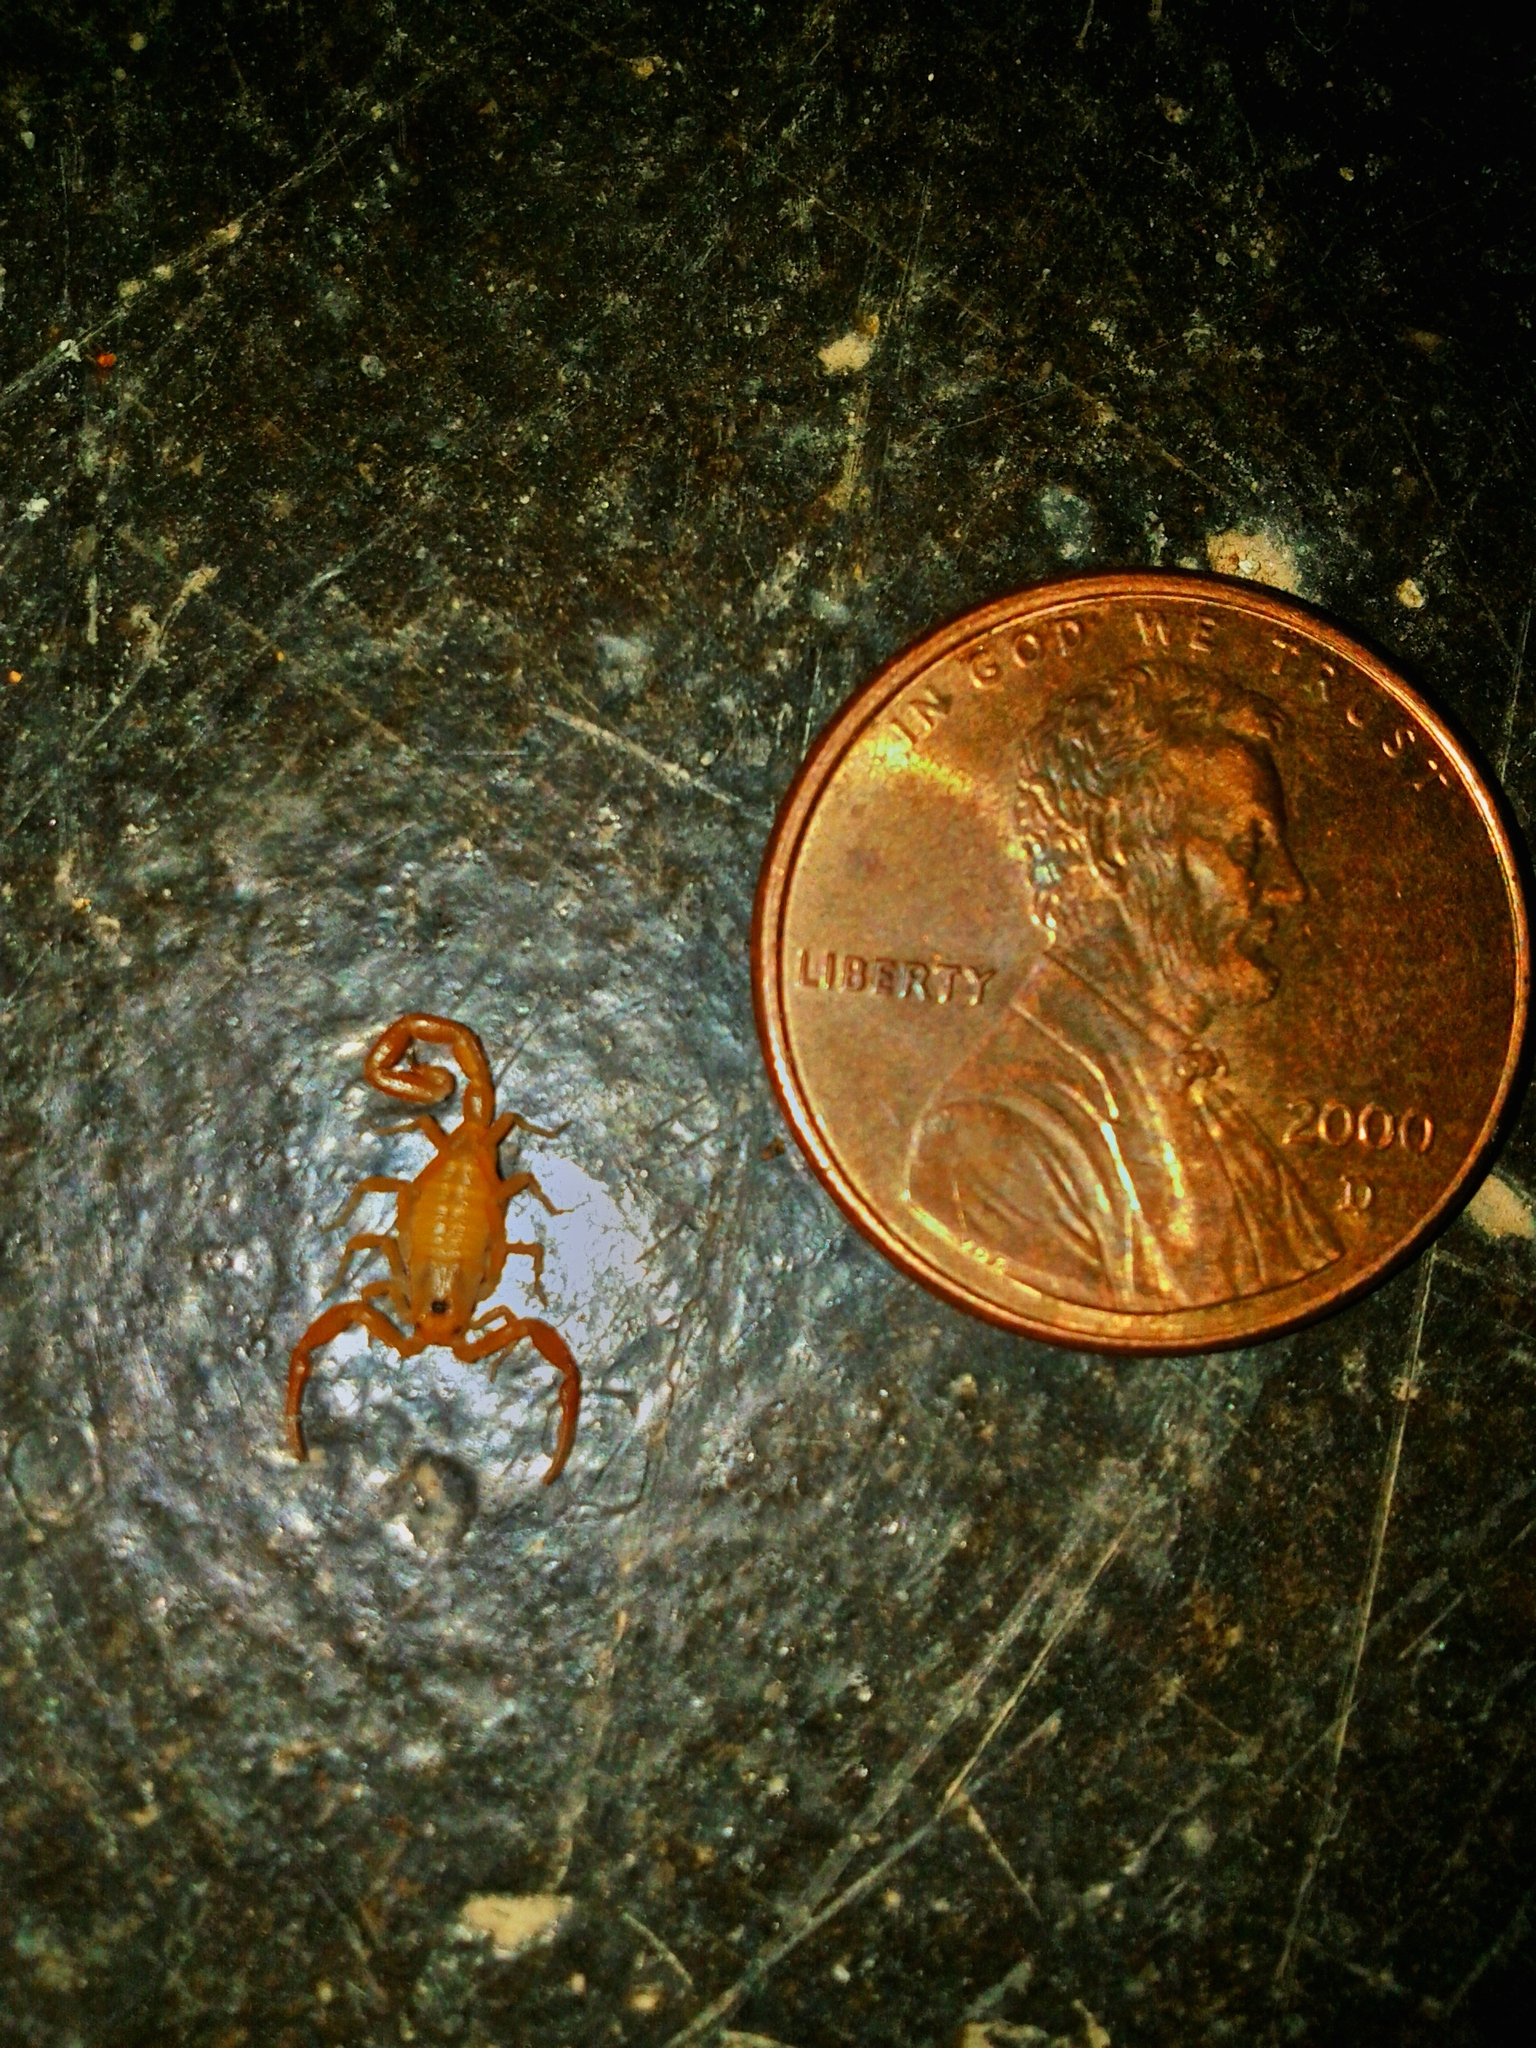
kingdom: Animalia
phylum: Arthropoda
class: Arachnida
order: Scorpiones
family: Buthidae
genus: Centruroides
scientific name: Centruroides sculpturatus
